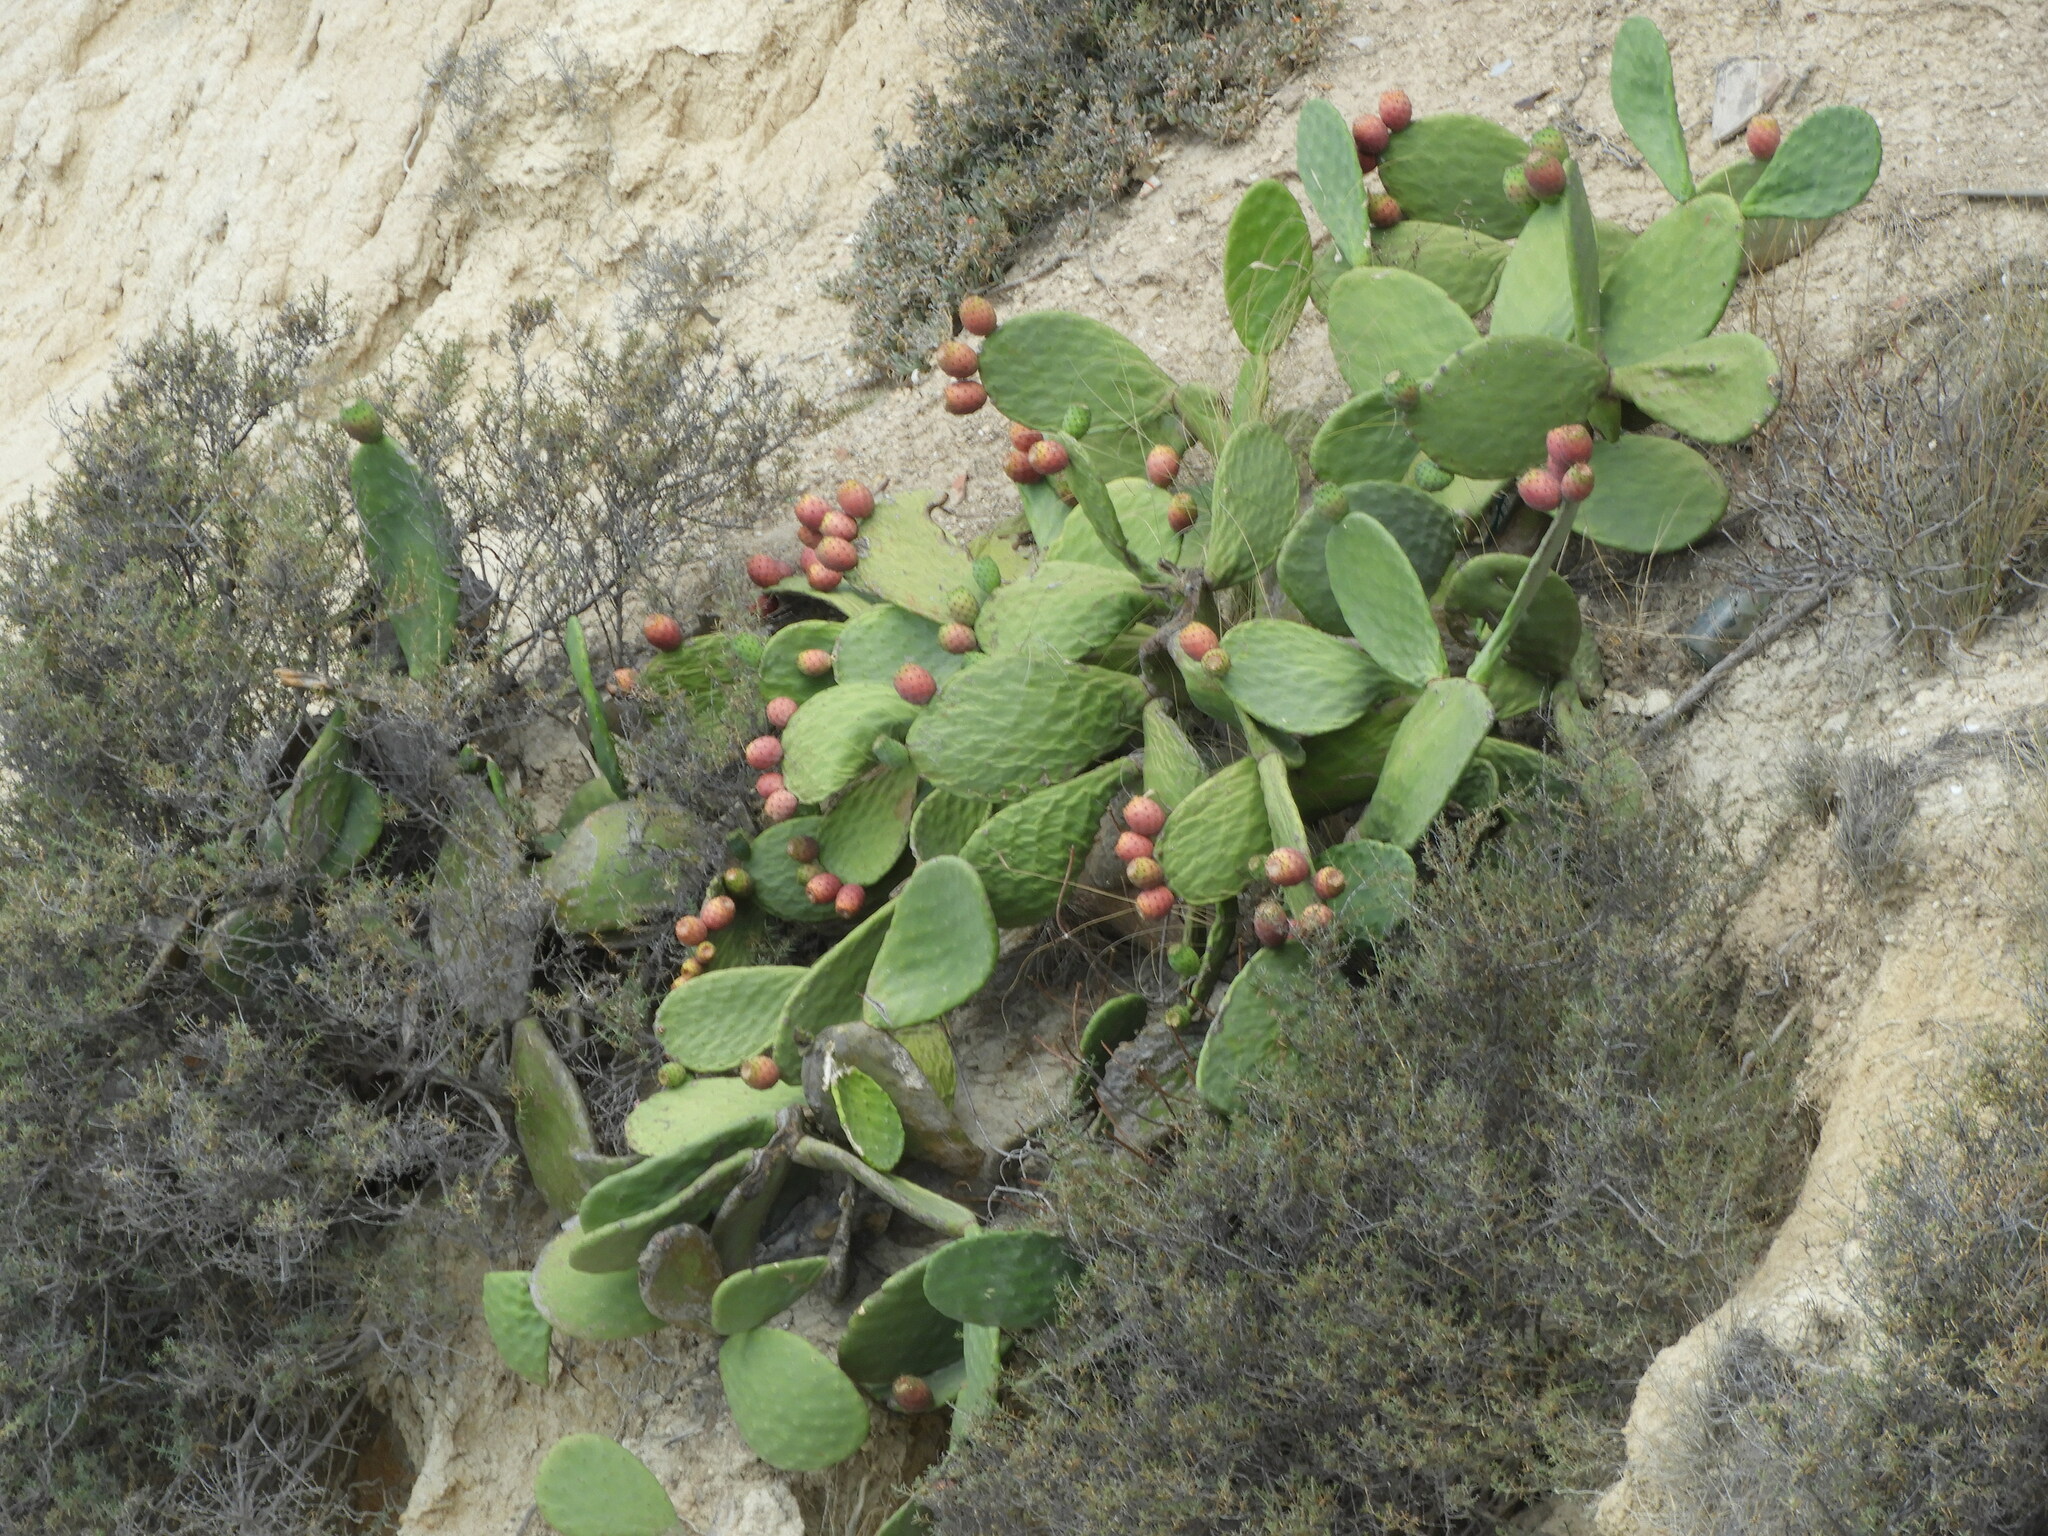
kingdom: Plantae
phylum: Tracheophyta
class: Magnoliopsida
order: Caryophyllales
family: Cactaceae
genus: Opuntia
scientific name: Opuntia ficus-indica
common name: Barbary fig
